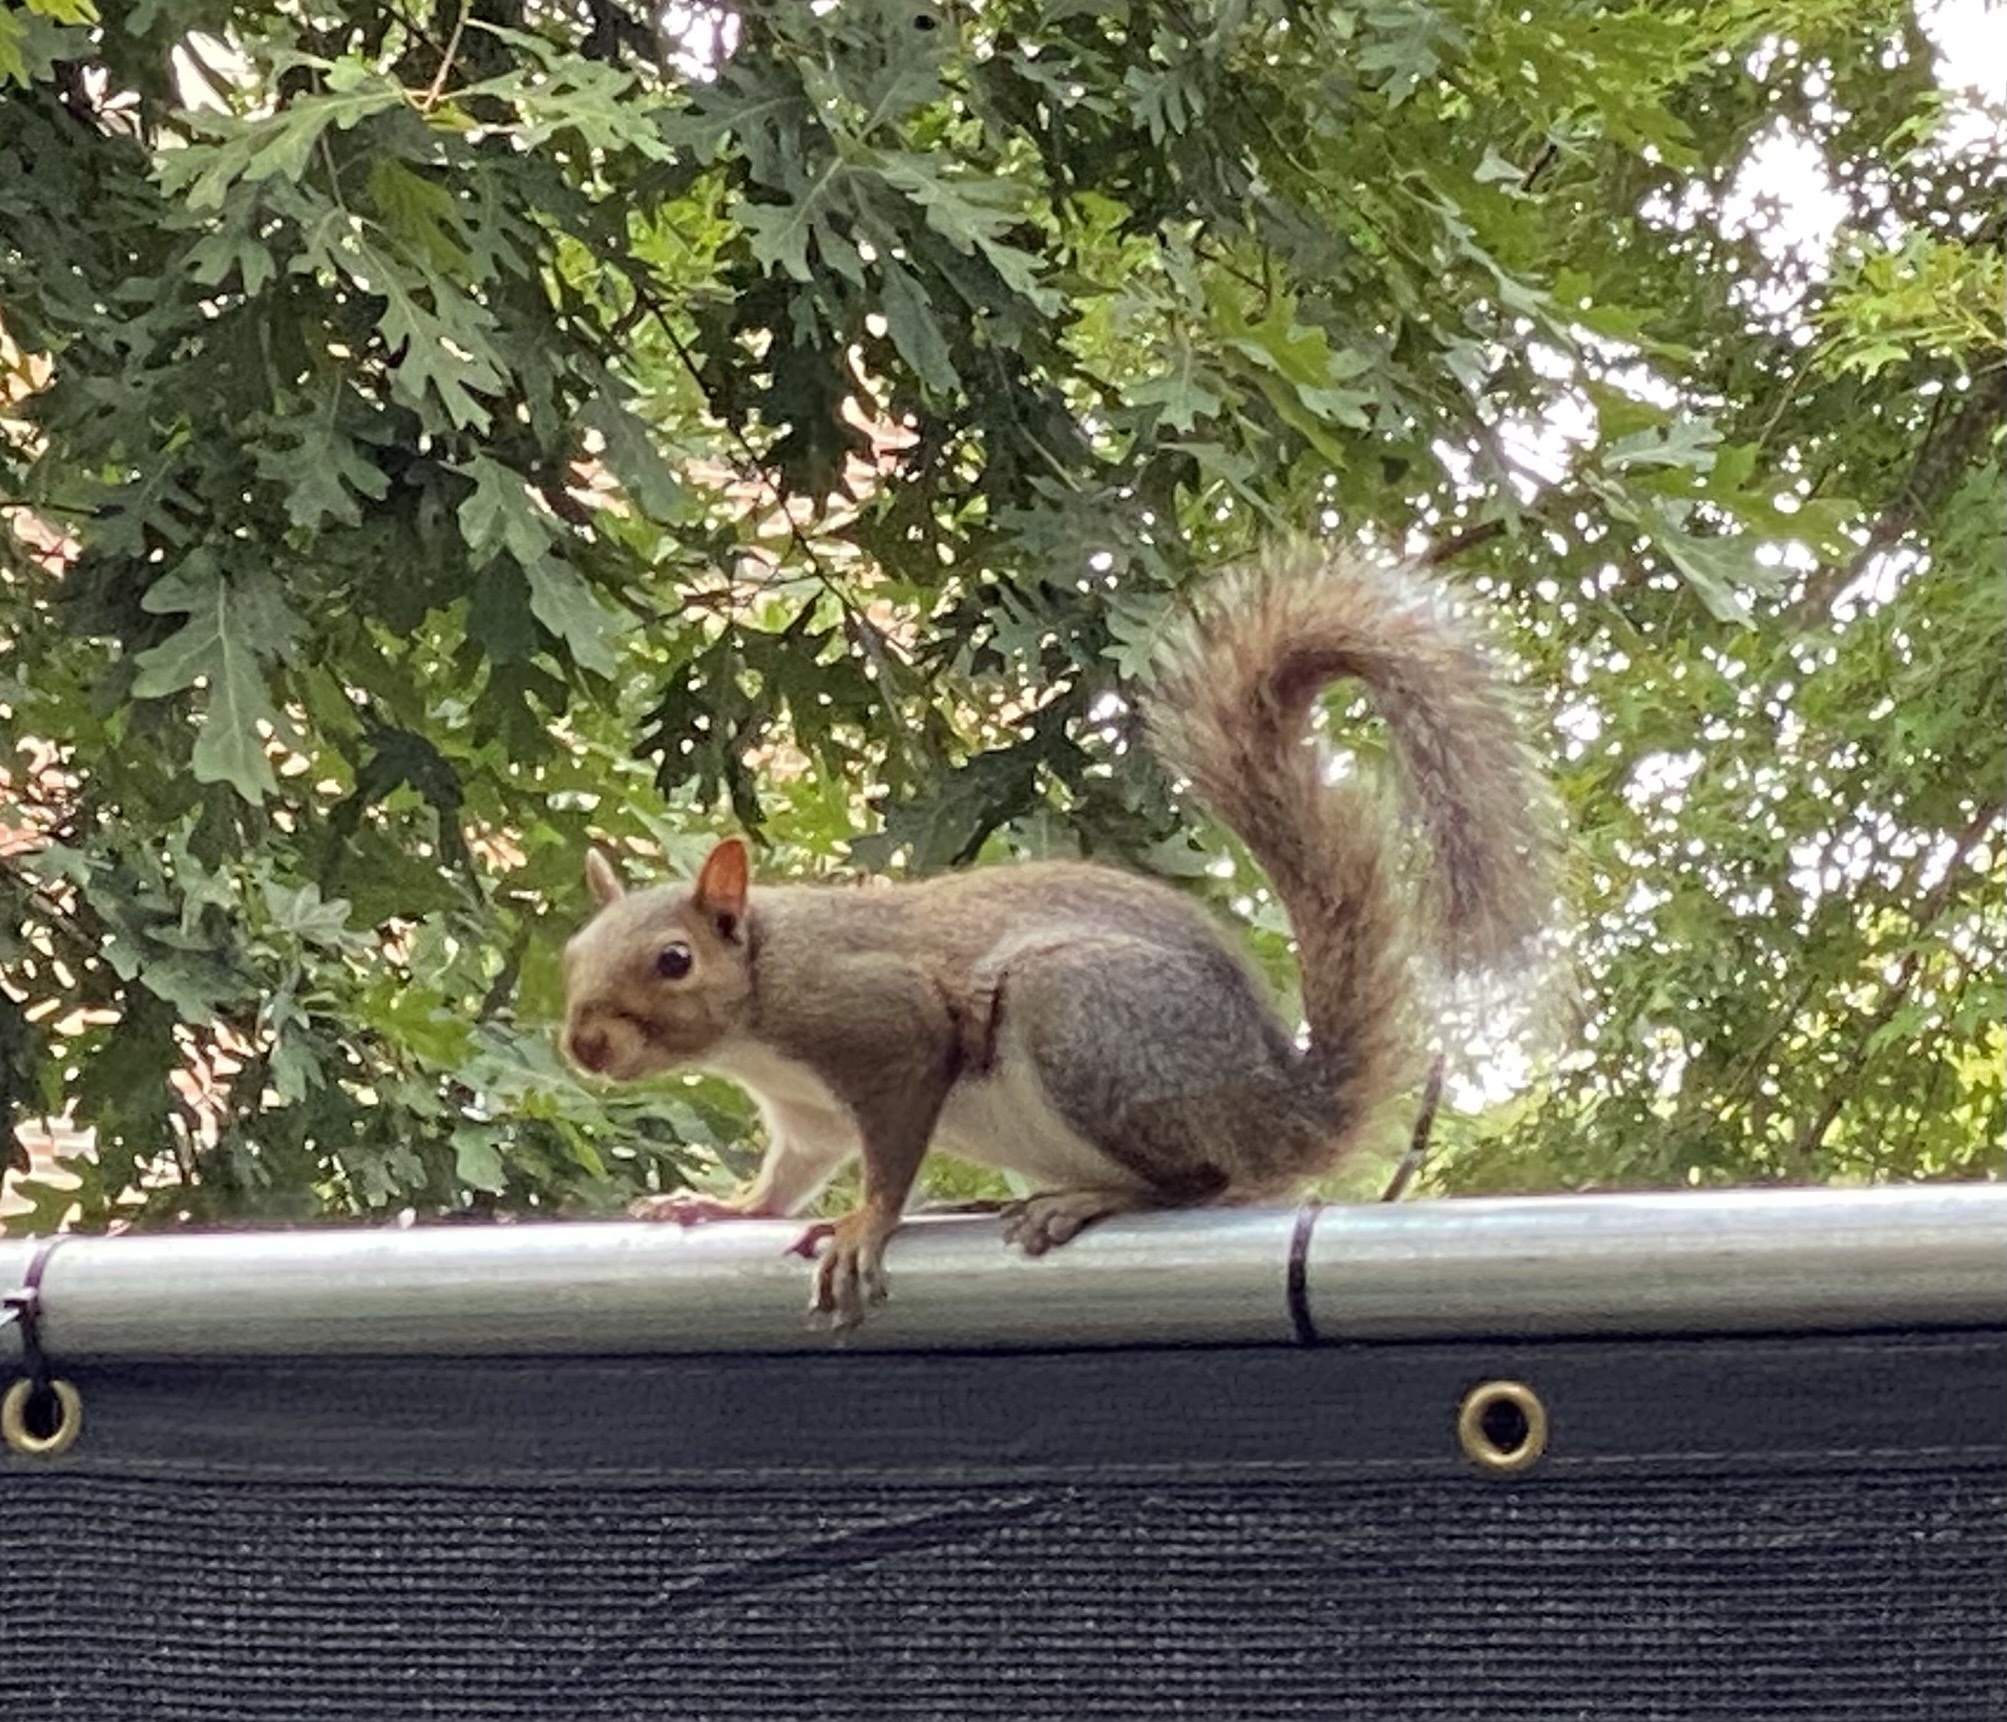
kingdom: Animalia
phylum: Chordata
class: Mammalia
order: Rodentia
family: Sciuridae
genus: Sciurus
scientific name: Sciurus carolinensis
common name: Eastern gray squirrel
